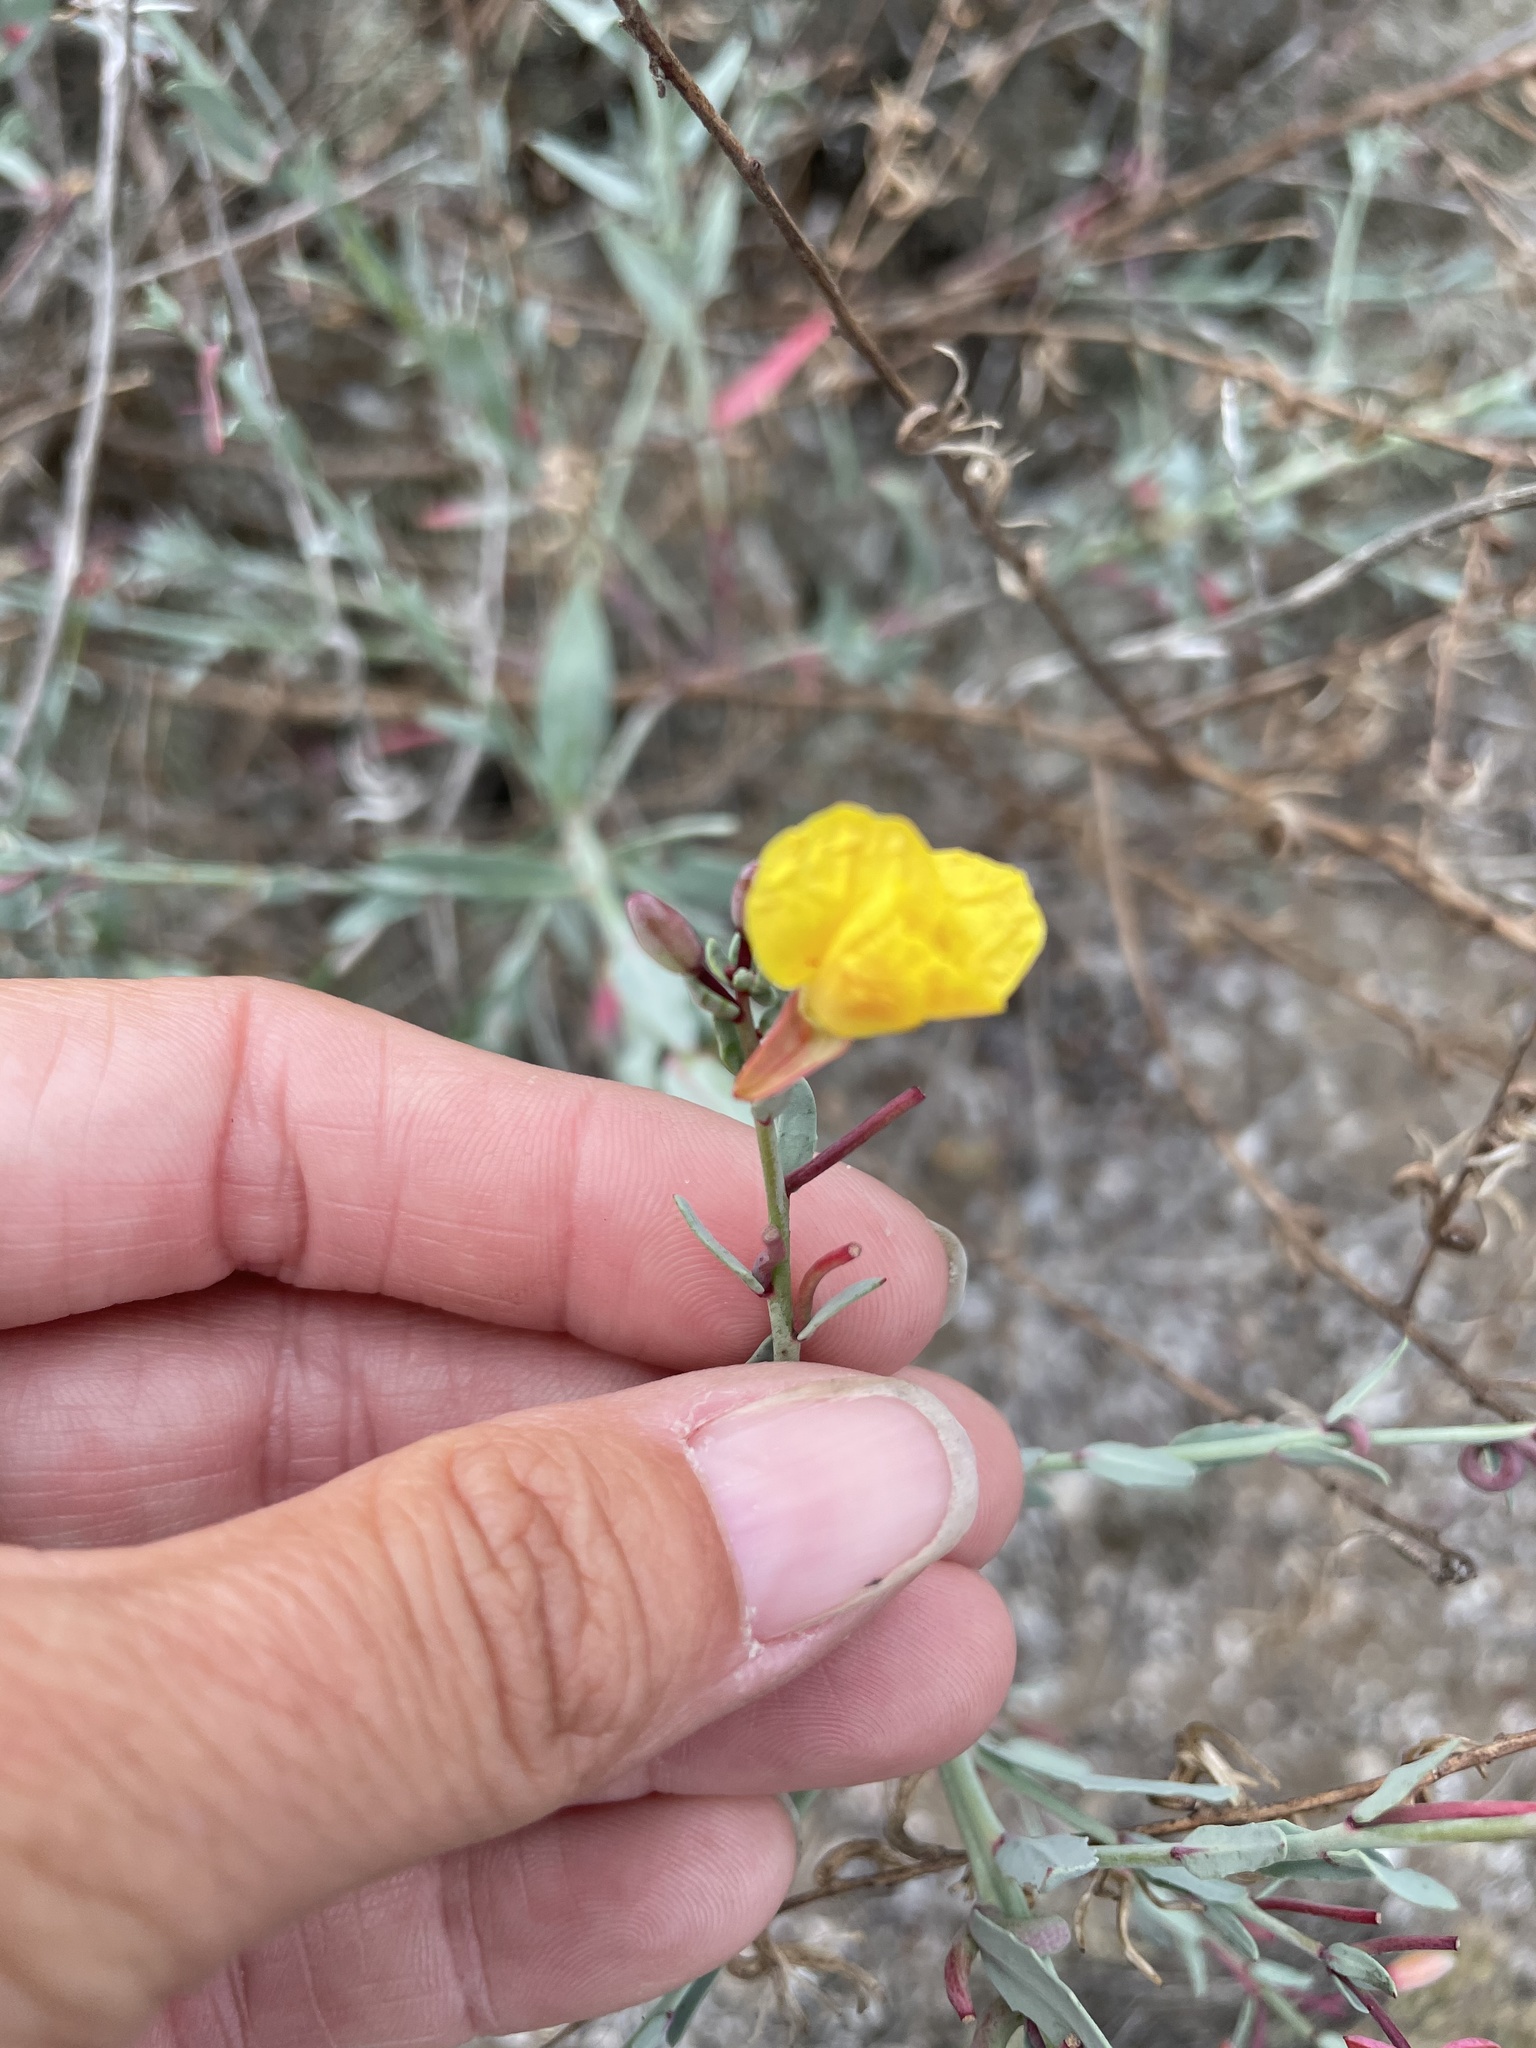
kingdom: Plantae
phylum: Tracheophyta
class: Magnoliopsida
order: Myrtales
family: Onagraceae
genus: Eulobus
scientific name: Eulobus crassifolius
